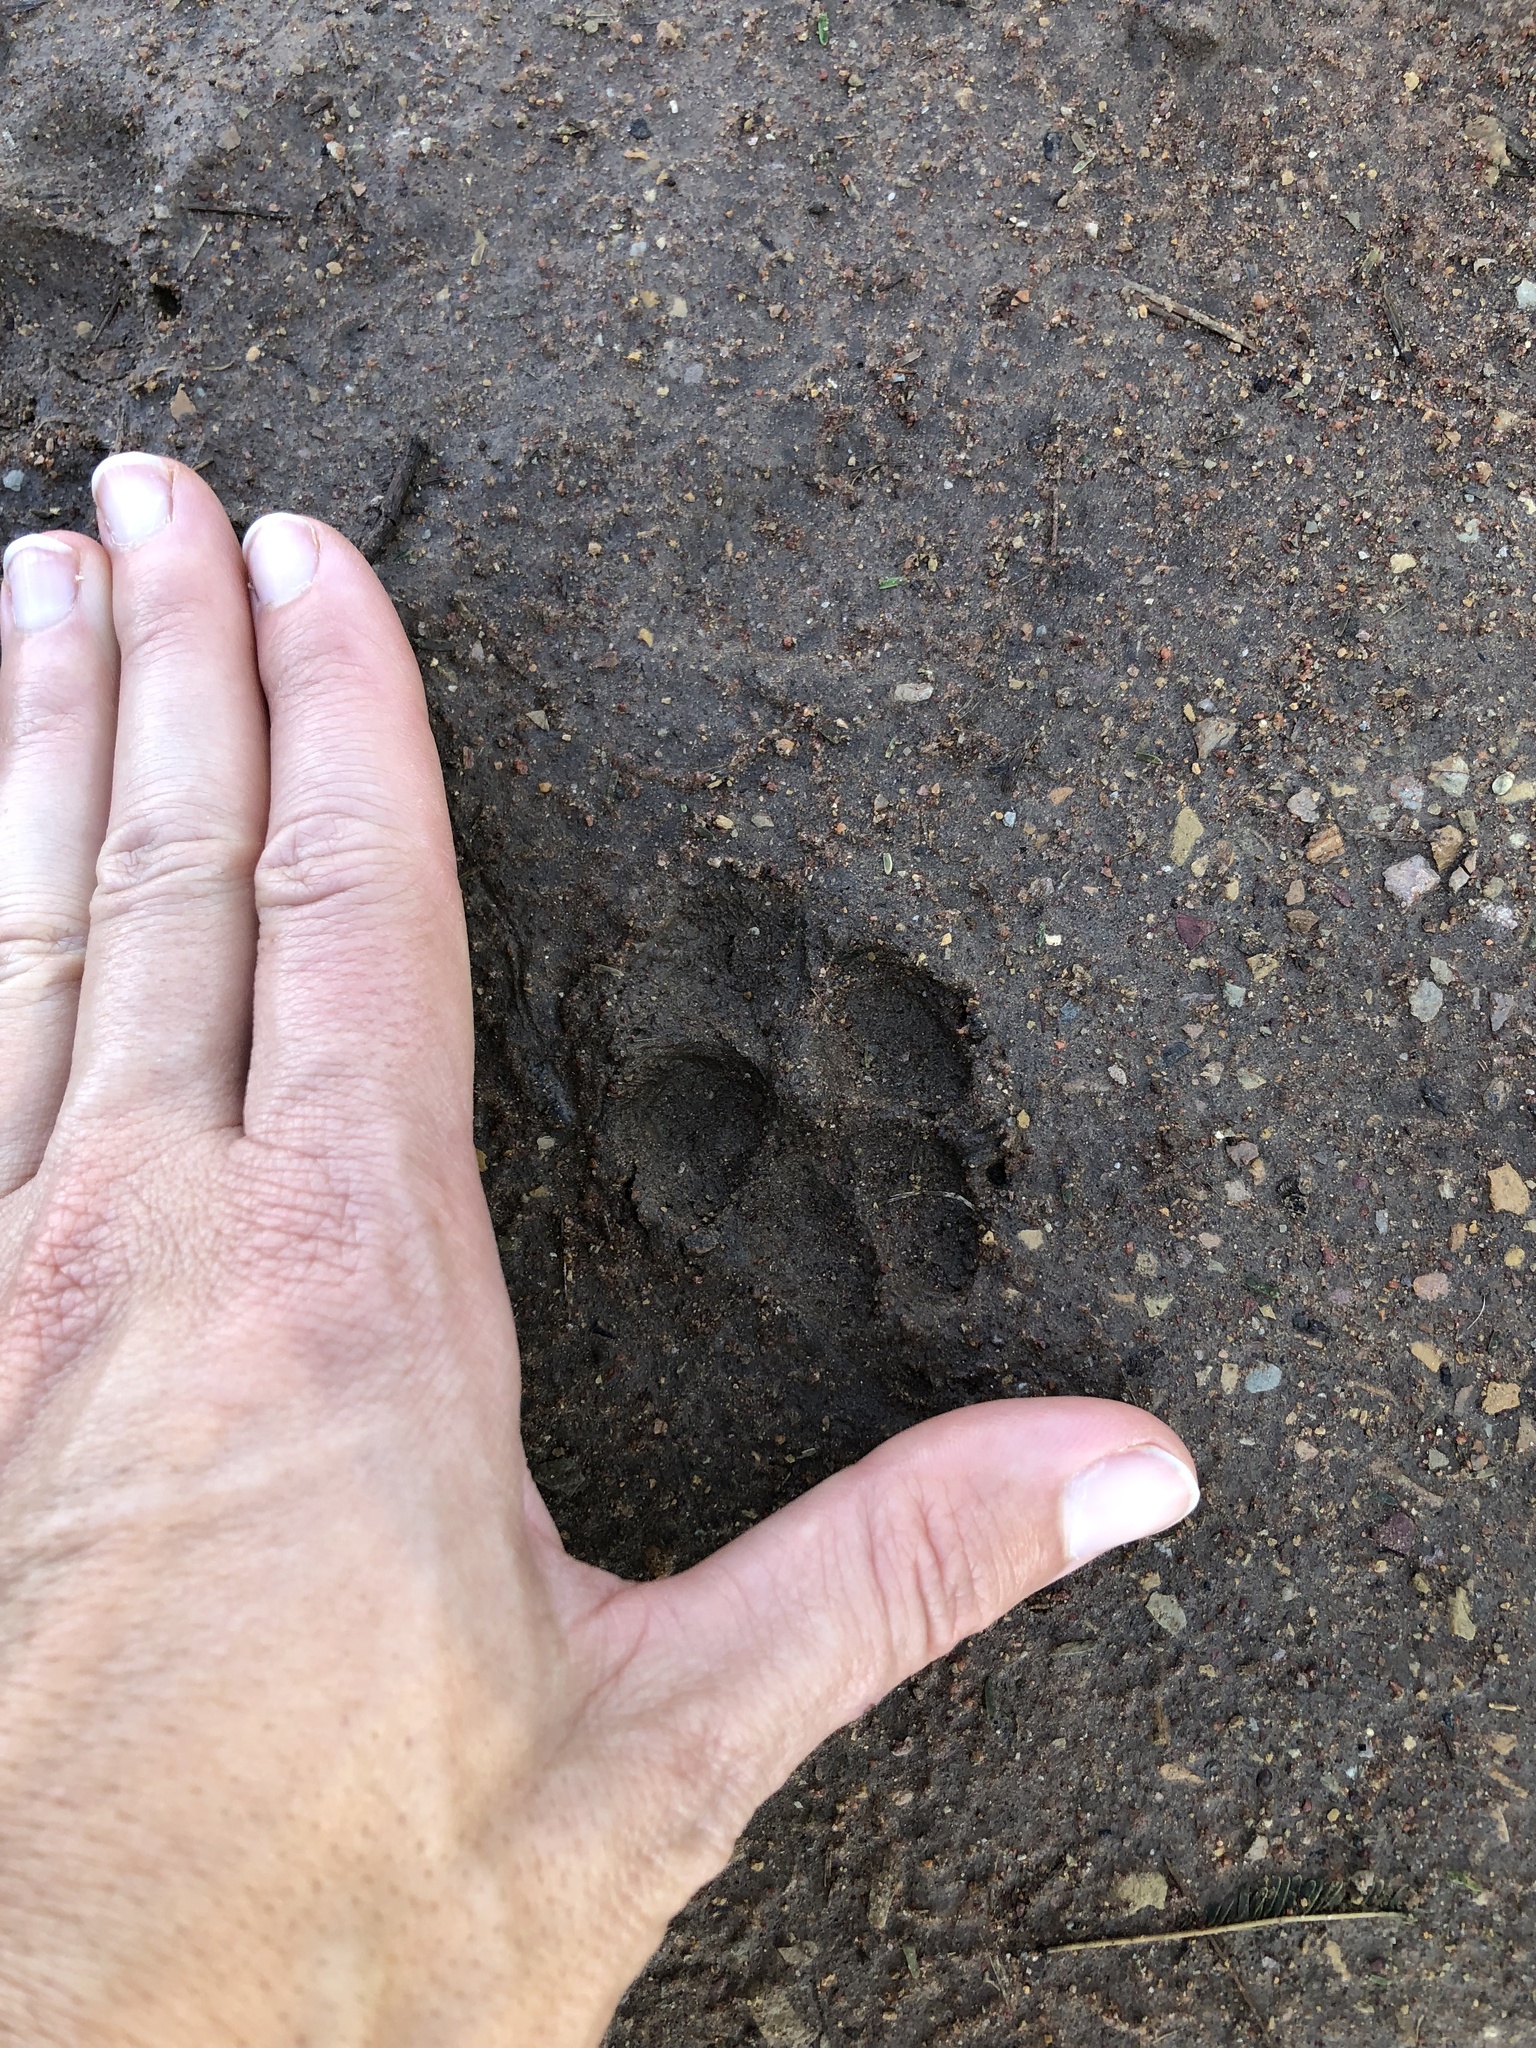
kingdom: Animalia
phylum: Chordata
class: Mammalia
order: Carnivora
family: Hyaenidae
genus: Proteles
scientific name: Proteles cristata
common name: Aardwolf
